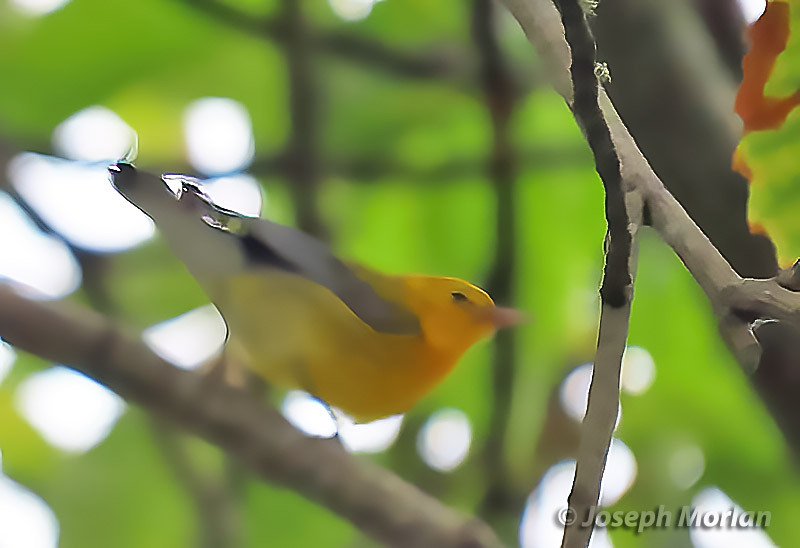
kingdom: Animalia
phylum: Chordata
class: Aves
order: Passeriformes
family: Parulidae
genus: Protonotaria
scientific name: Protonotaria citrea
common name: Prothonotary warbler
